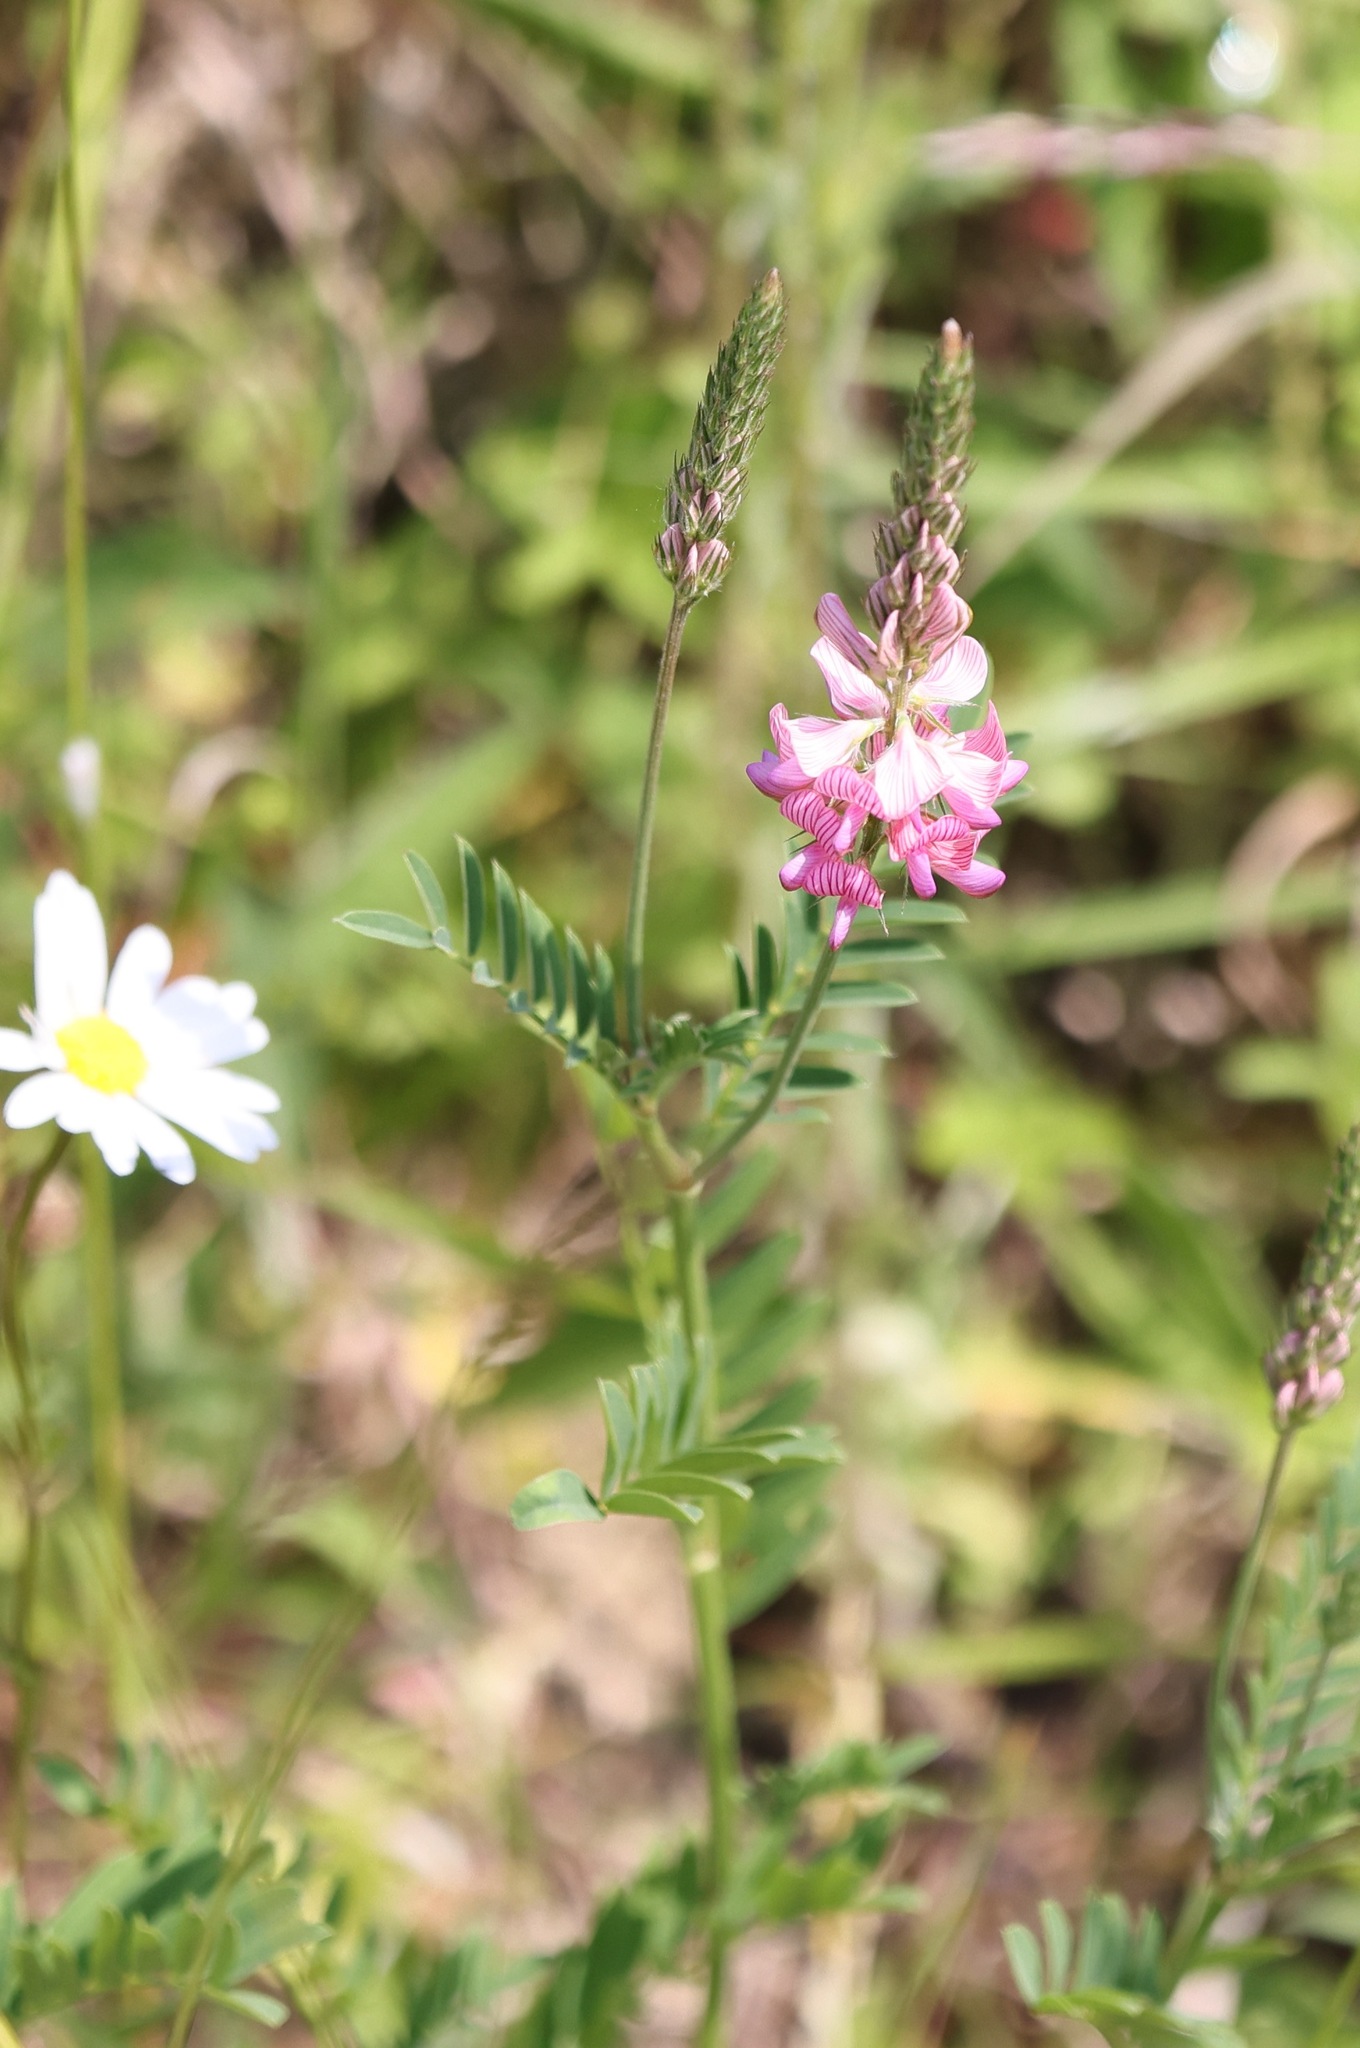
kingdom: Plantae
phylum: Tracheophyta
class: Magnoliopsida
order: Fabales
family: Fabaceae
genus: Onobrychis
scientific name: Onobrychis viciifolia
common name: Sainfoin
